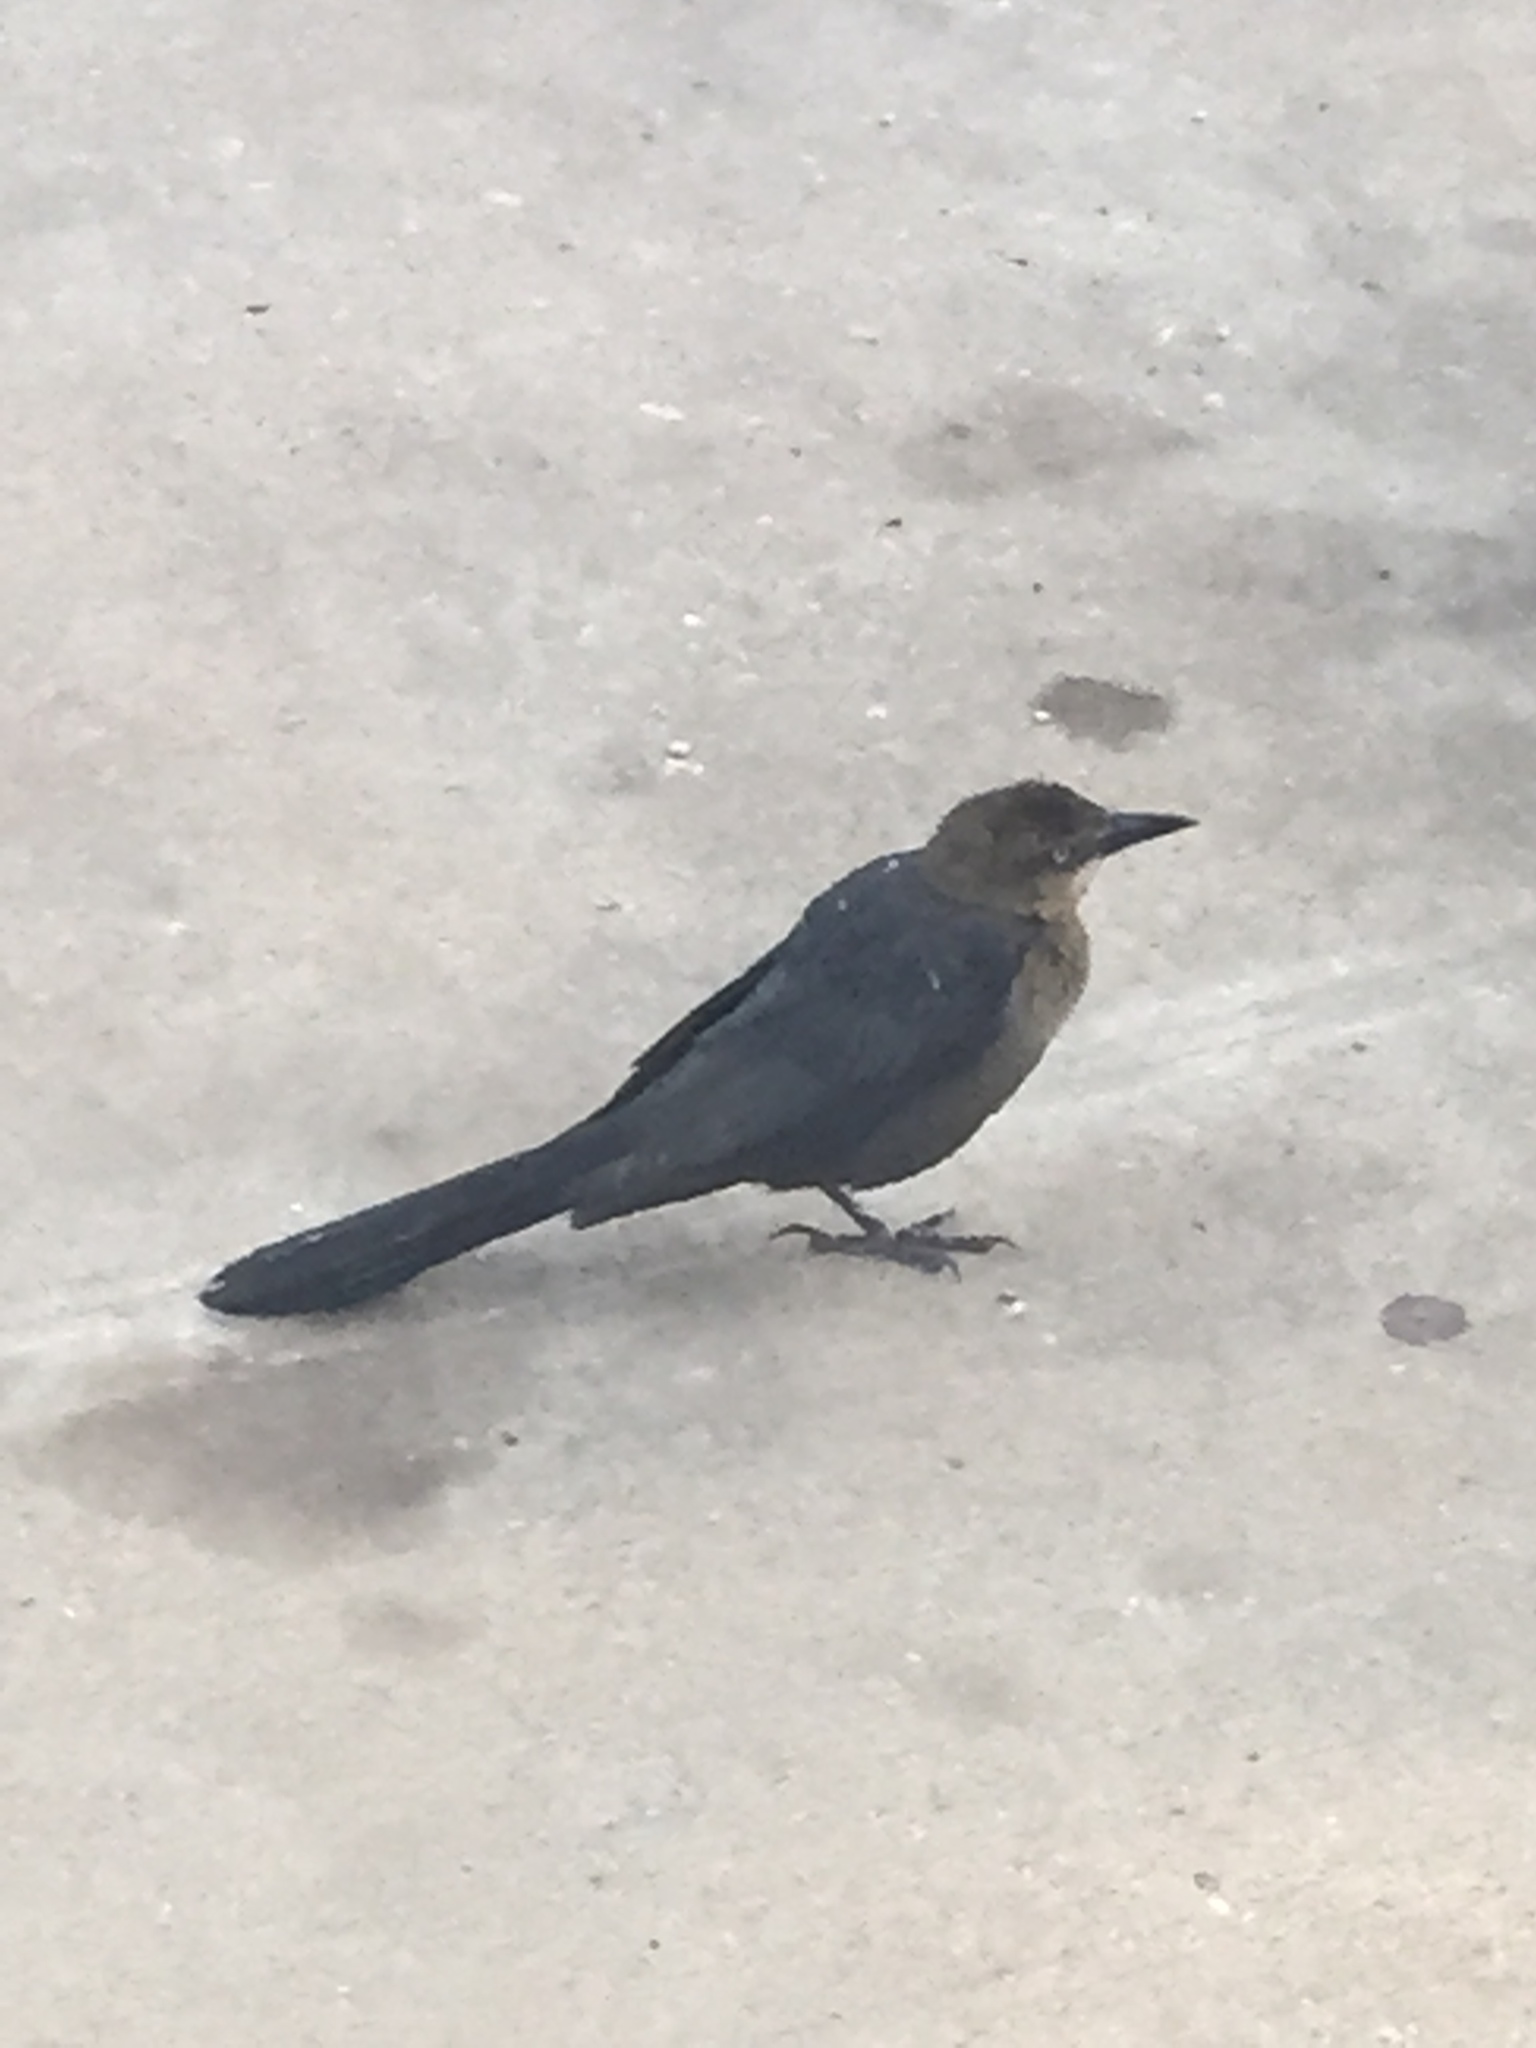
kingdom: Animalia
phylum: Chordata
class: Aves
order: Passeriformes
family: Icteridae
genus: Quiscalus
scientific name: Quiscalus mexicanus
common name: Great-tailed grackle
